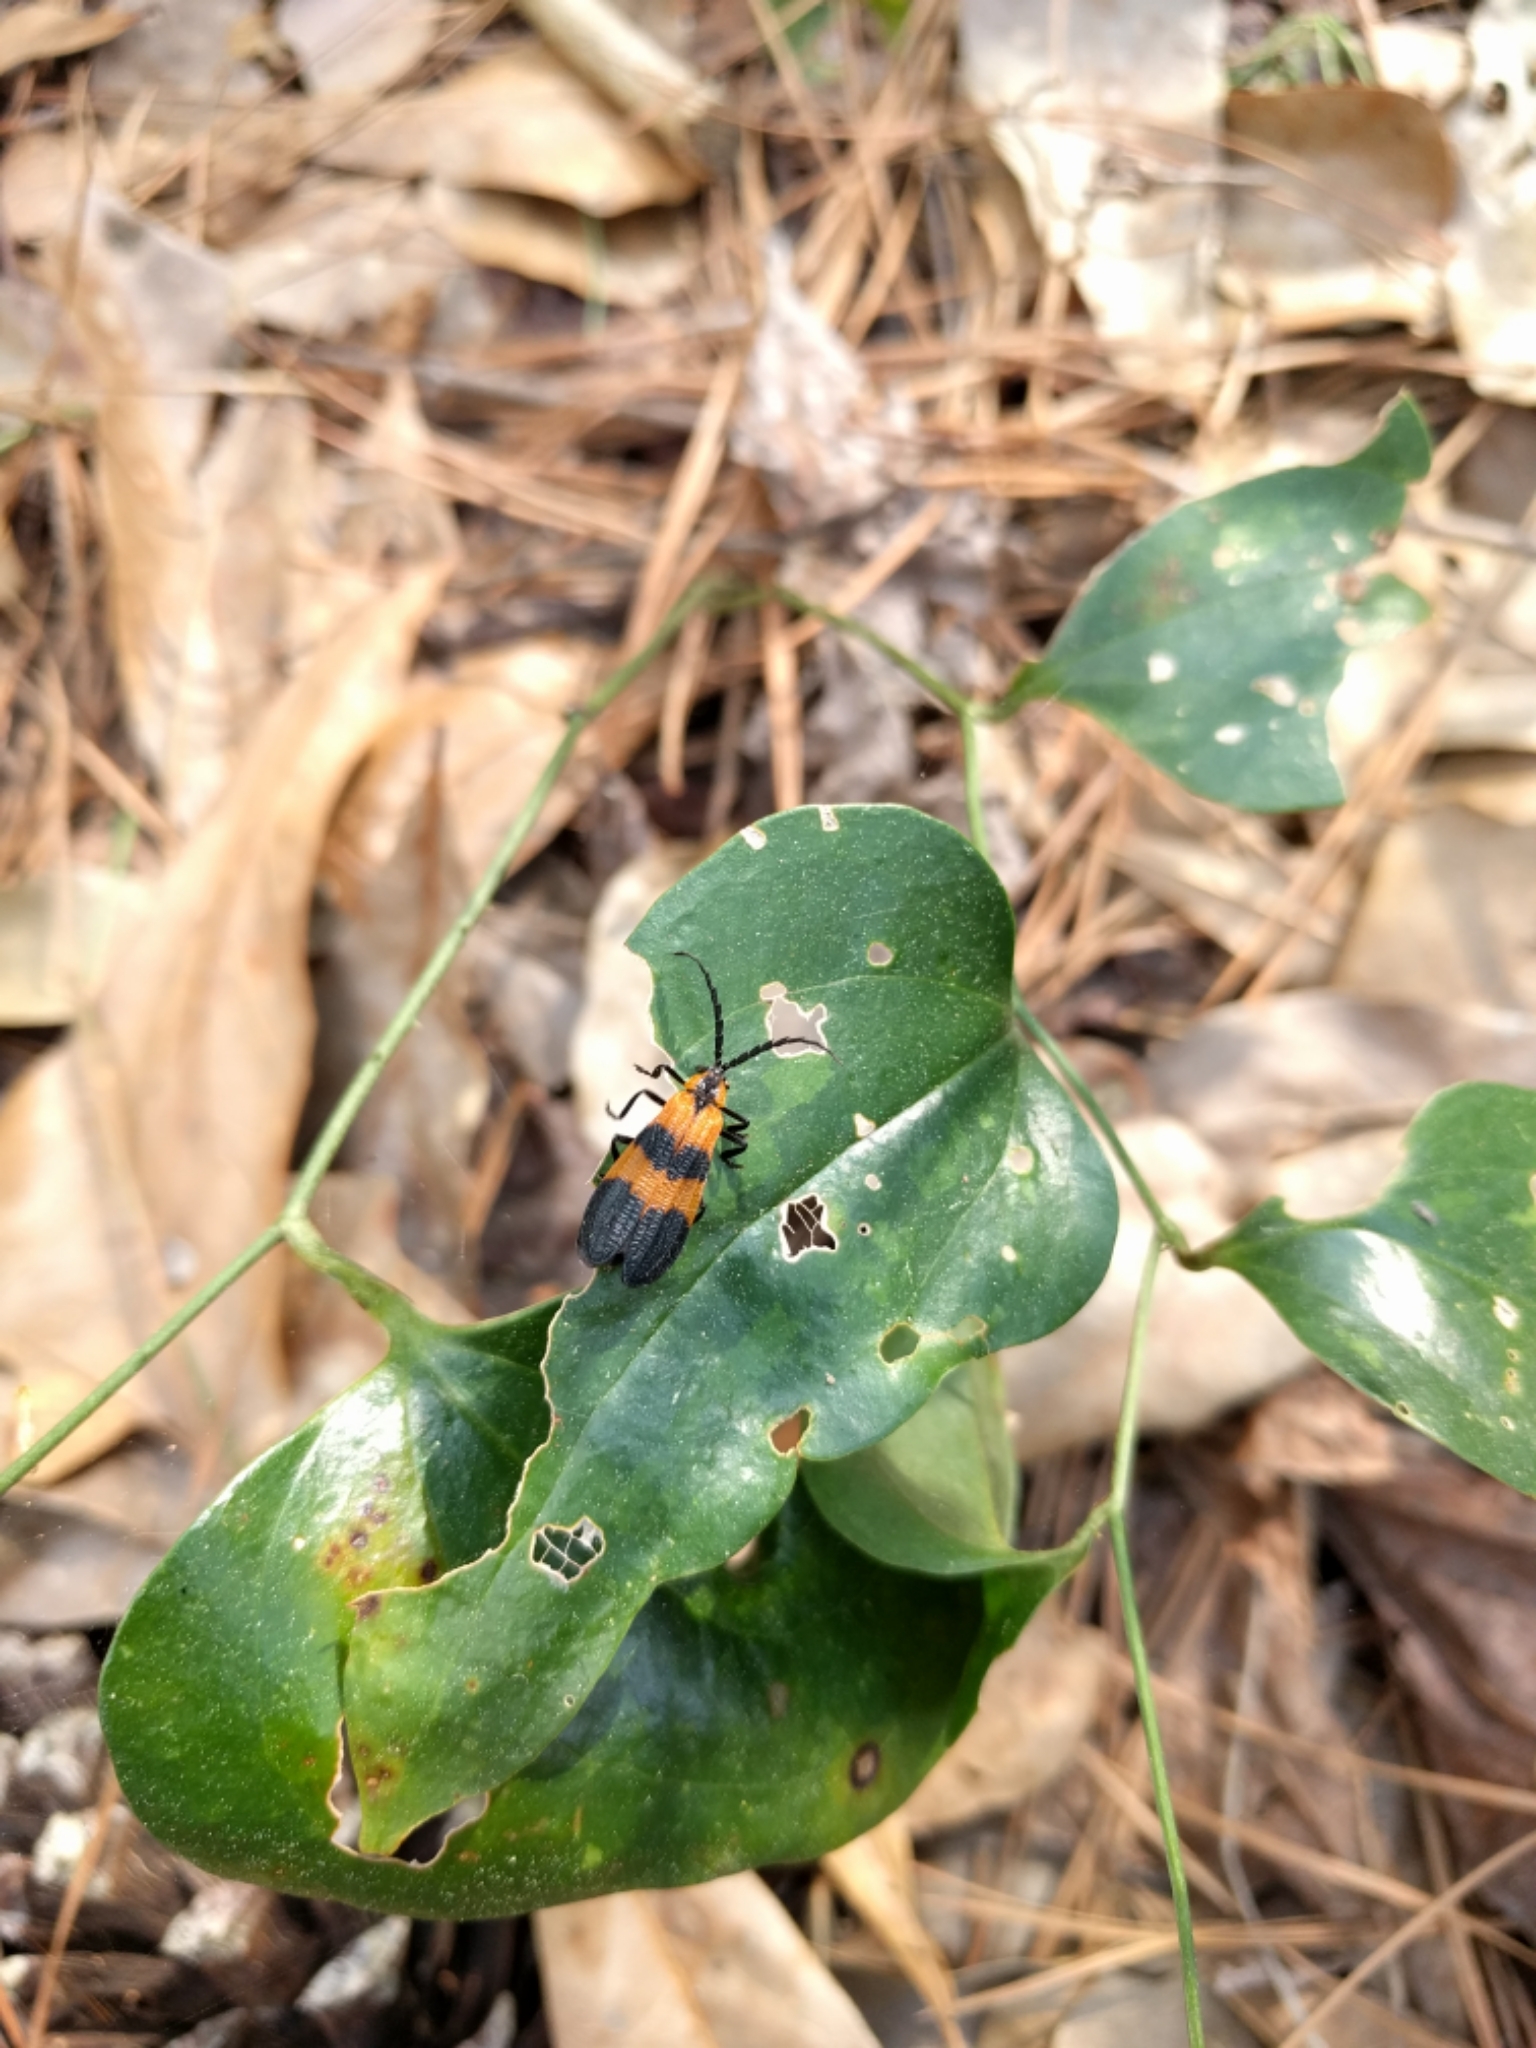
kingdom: Animalia
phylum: Arthropoda
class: Insecta
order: Coleoptera
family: Lycidae
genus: Calopteron
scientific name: Calopteron reticulatum
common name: Banded net-winged beetle
